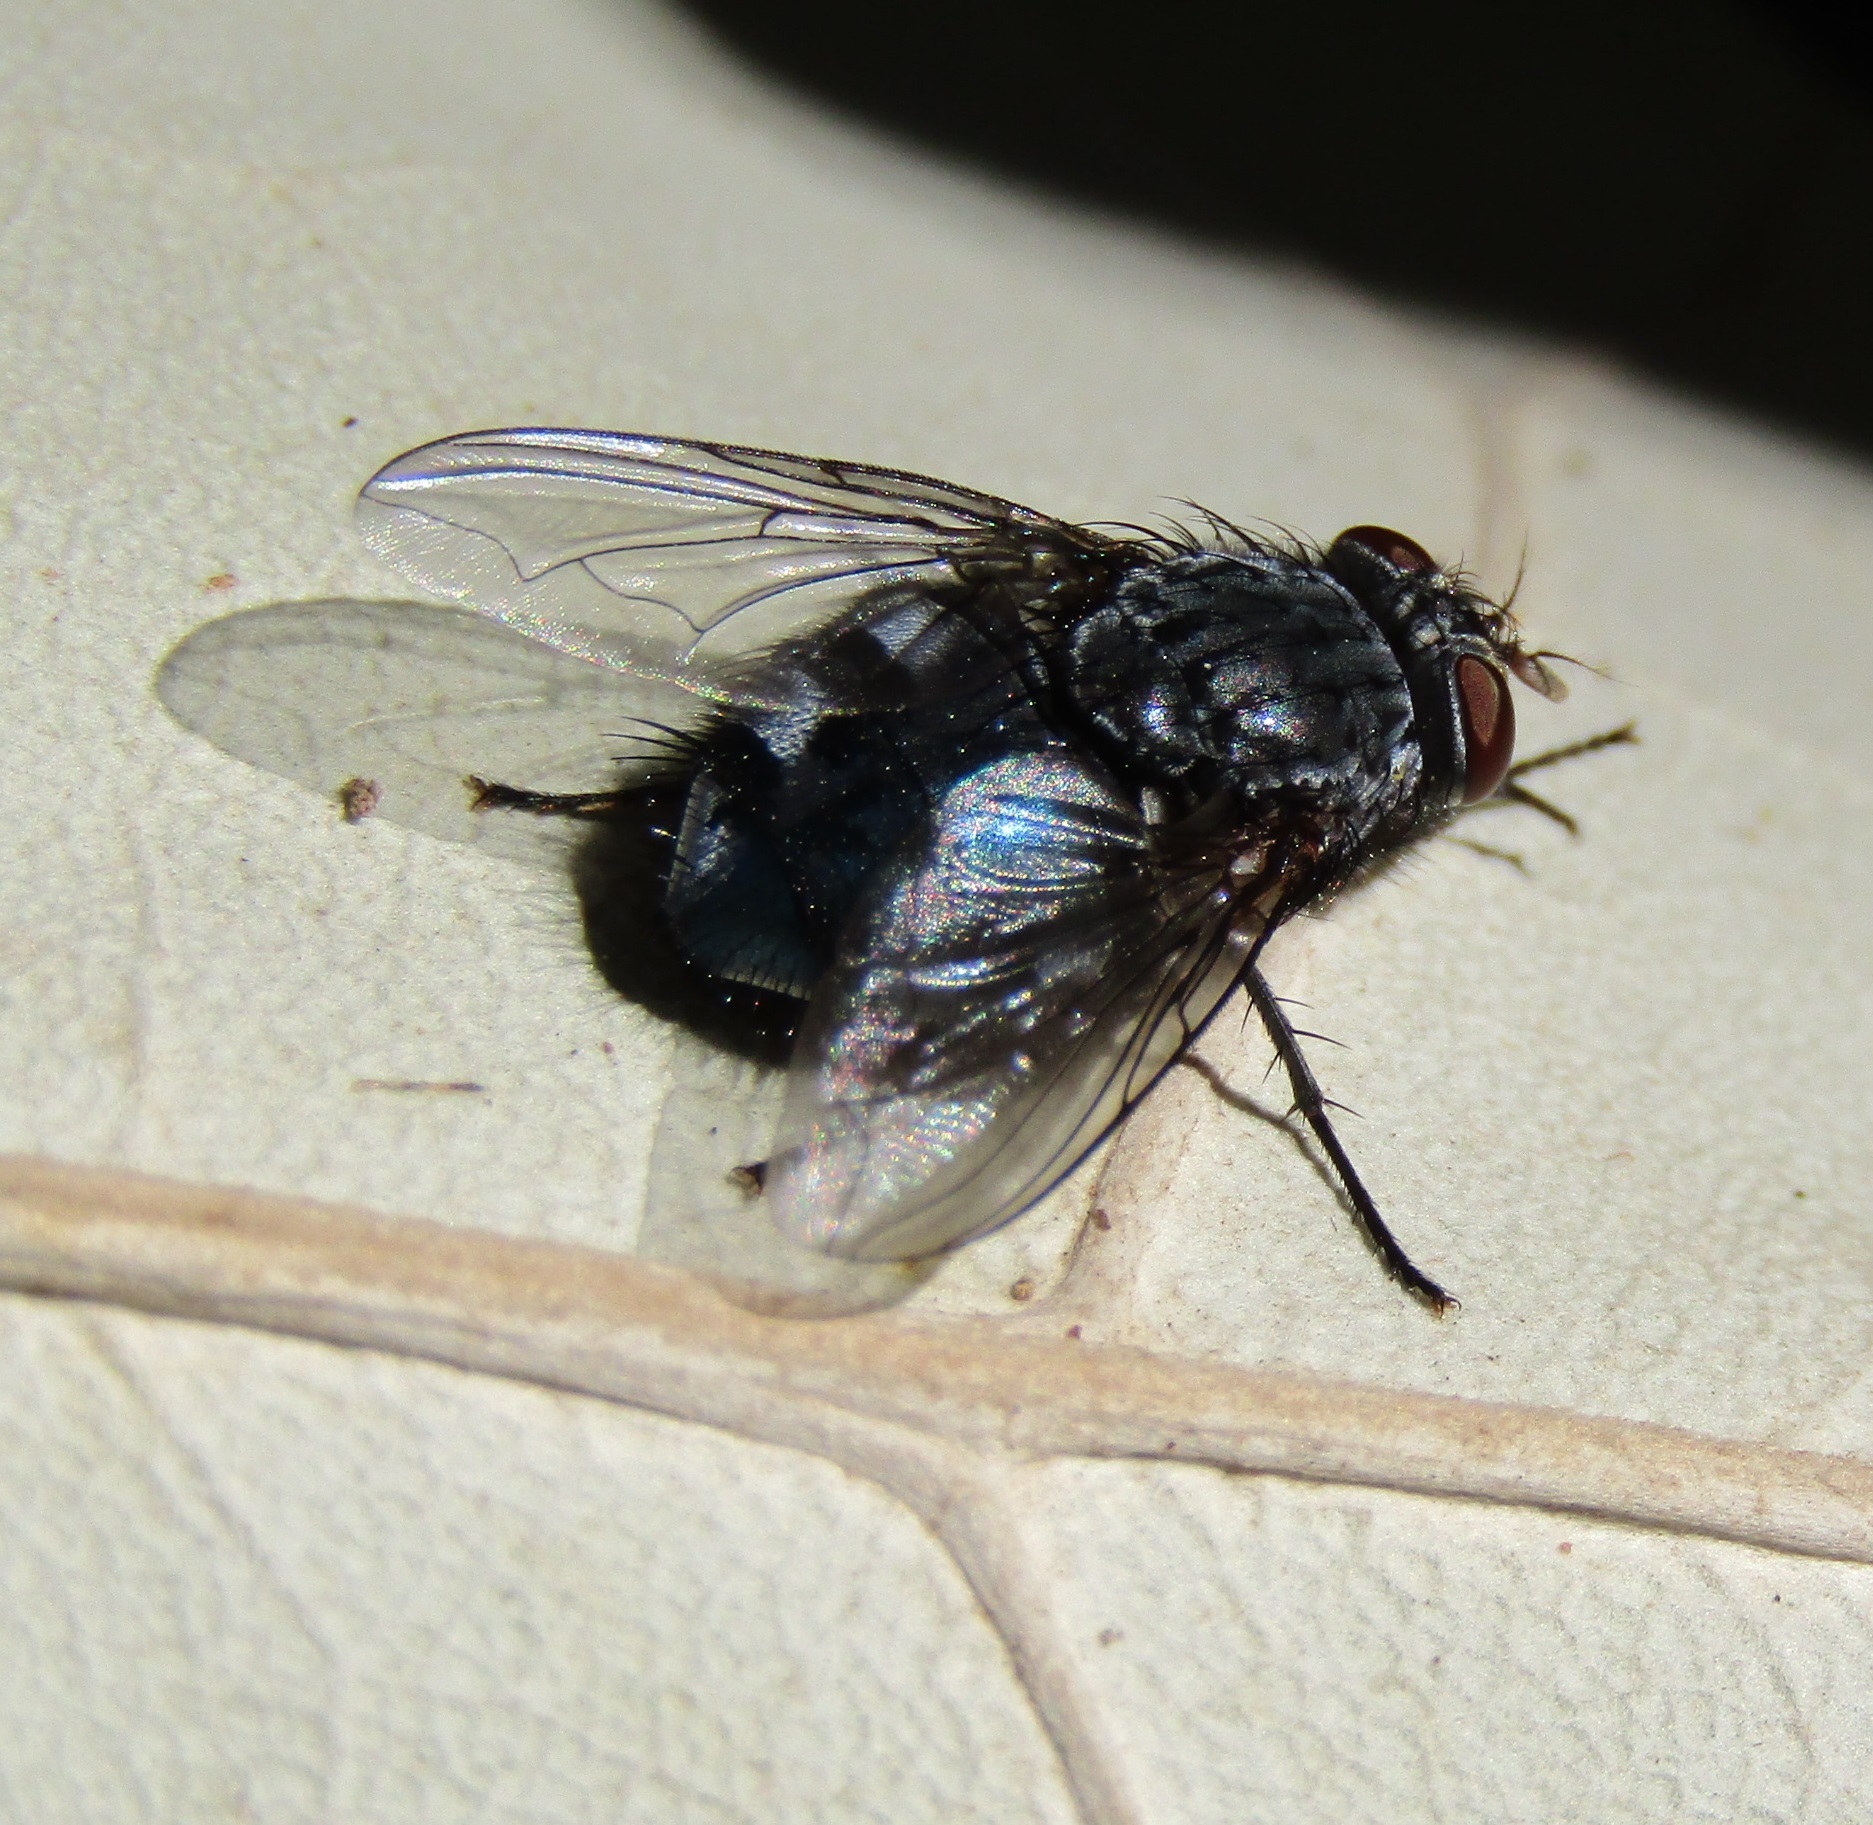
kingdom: Animalia
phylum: Arthropoda
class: Insecta
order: Diptera
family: Calliphoridae
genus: Calliphora
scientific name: Calliphora vicina
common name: Common blow flie
